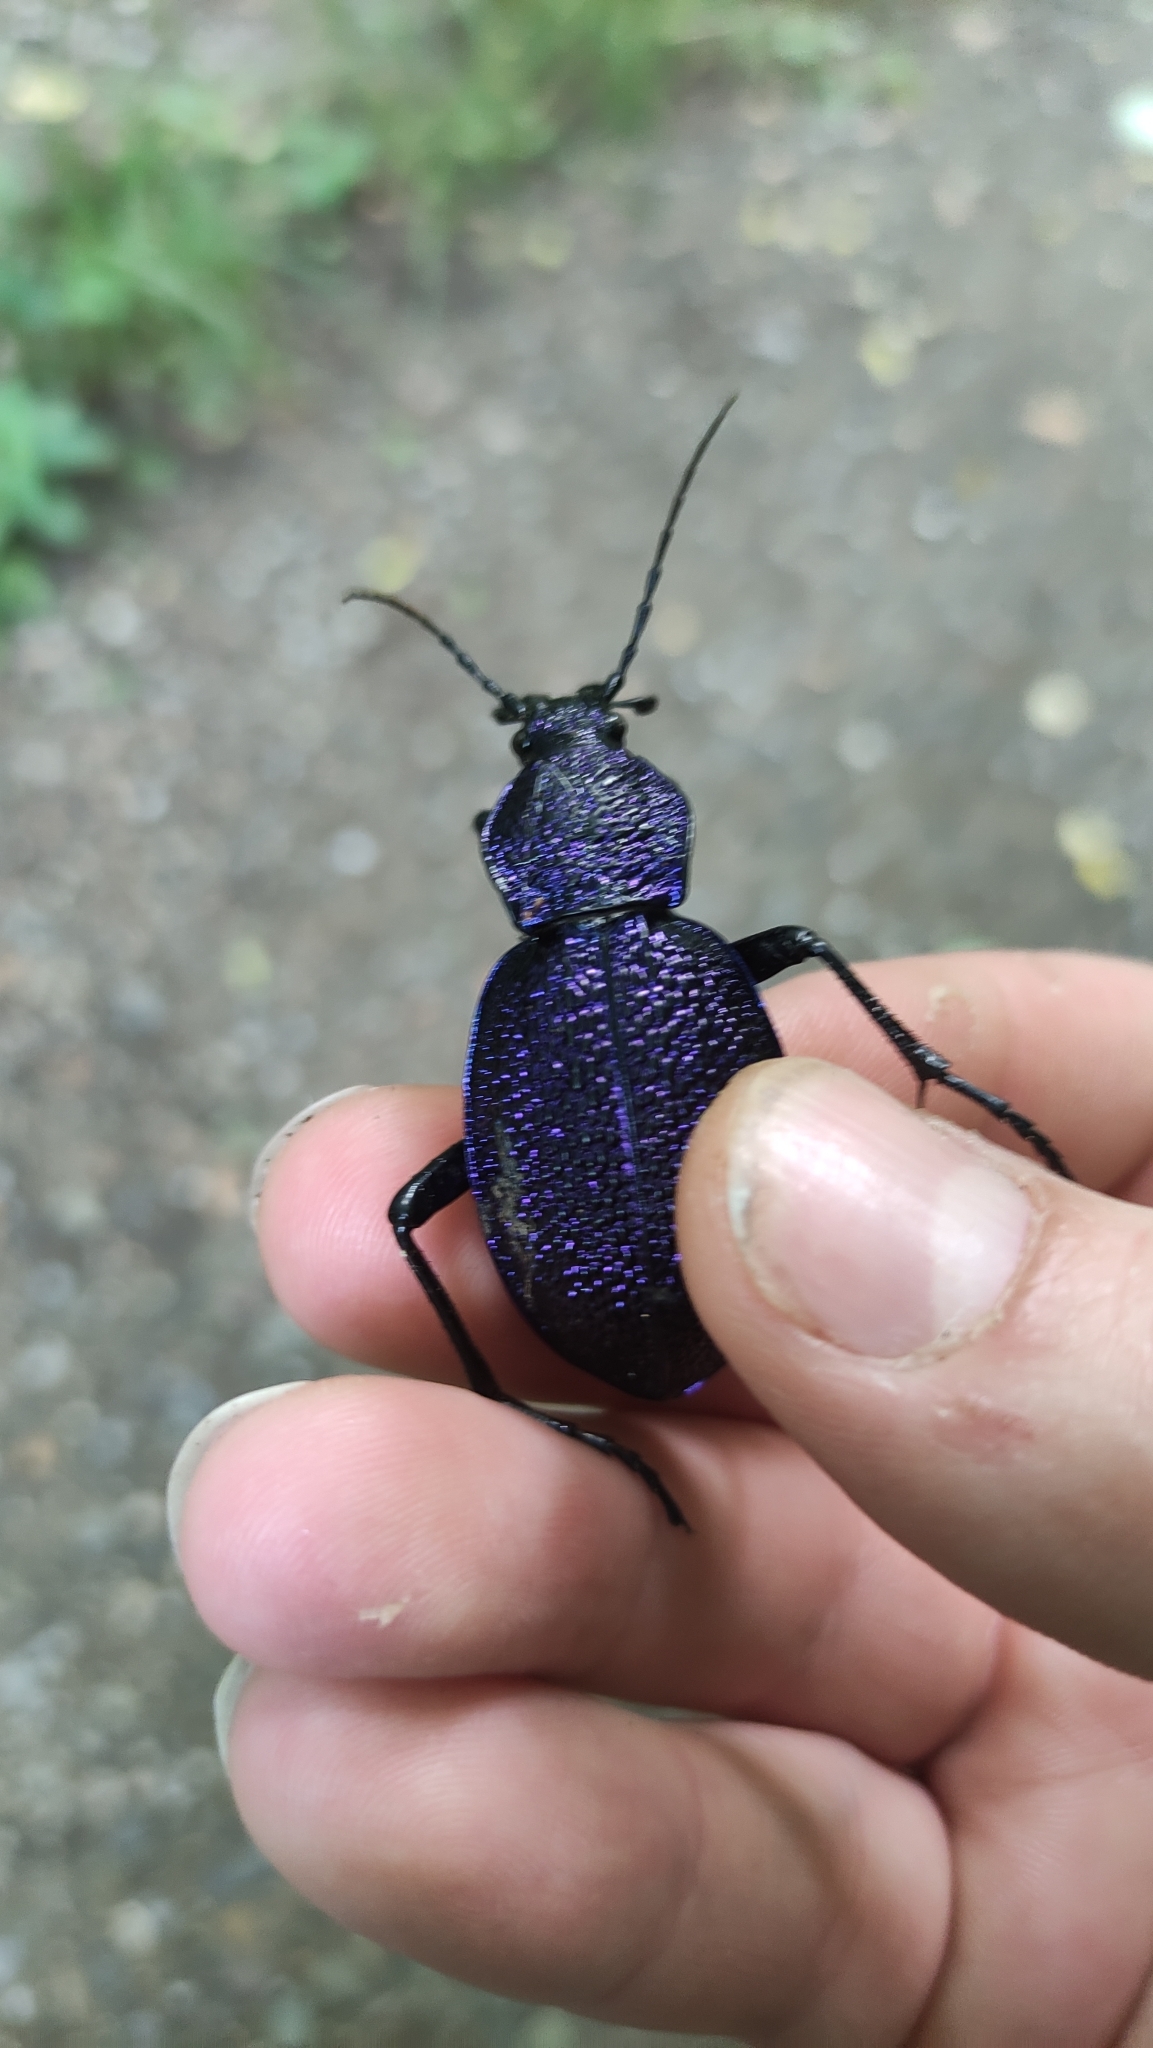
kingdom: Animalia
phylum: Arthropoda
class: Insecta
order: Coleoptera
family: Carabidae
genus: Carabus
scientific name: Carabus scabrosus
